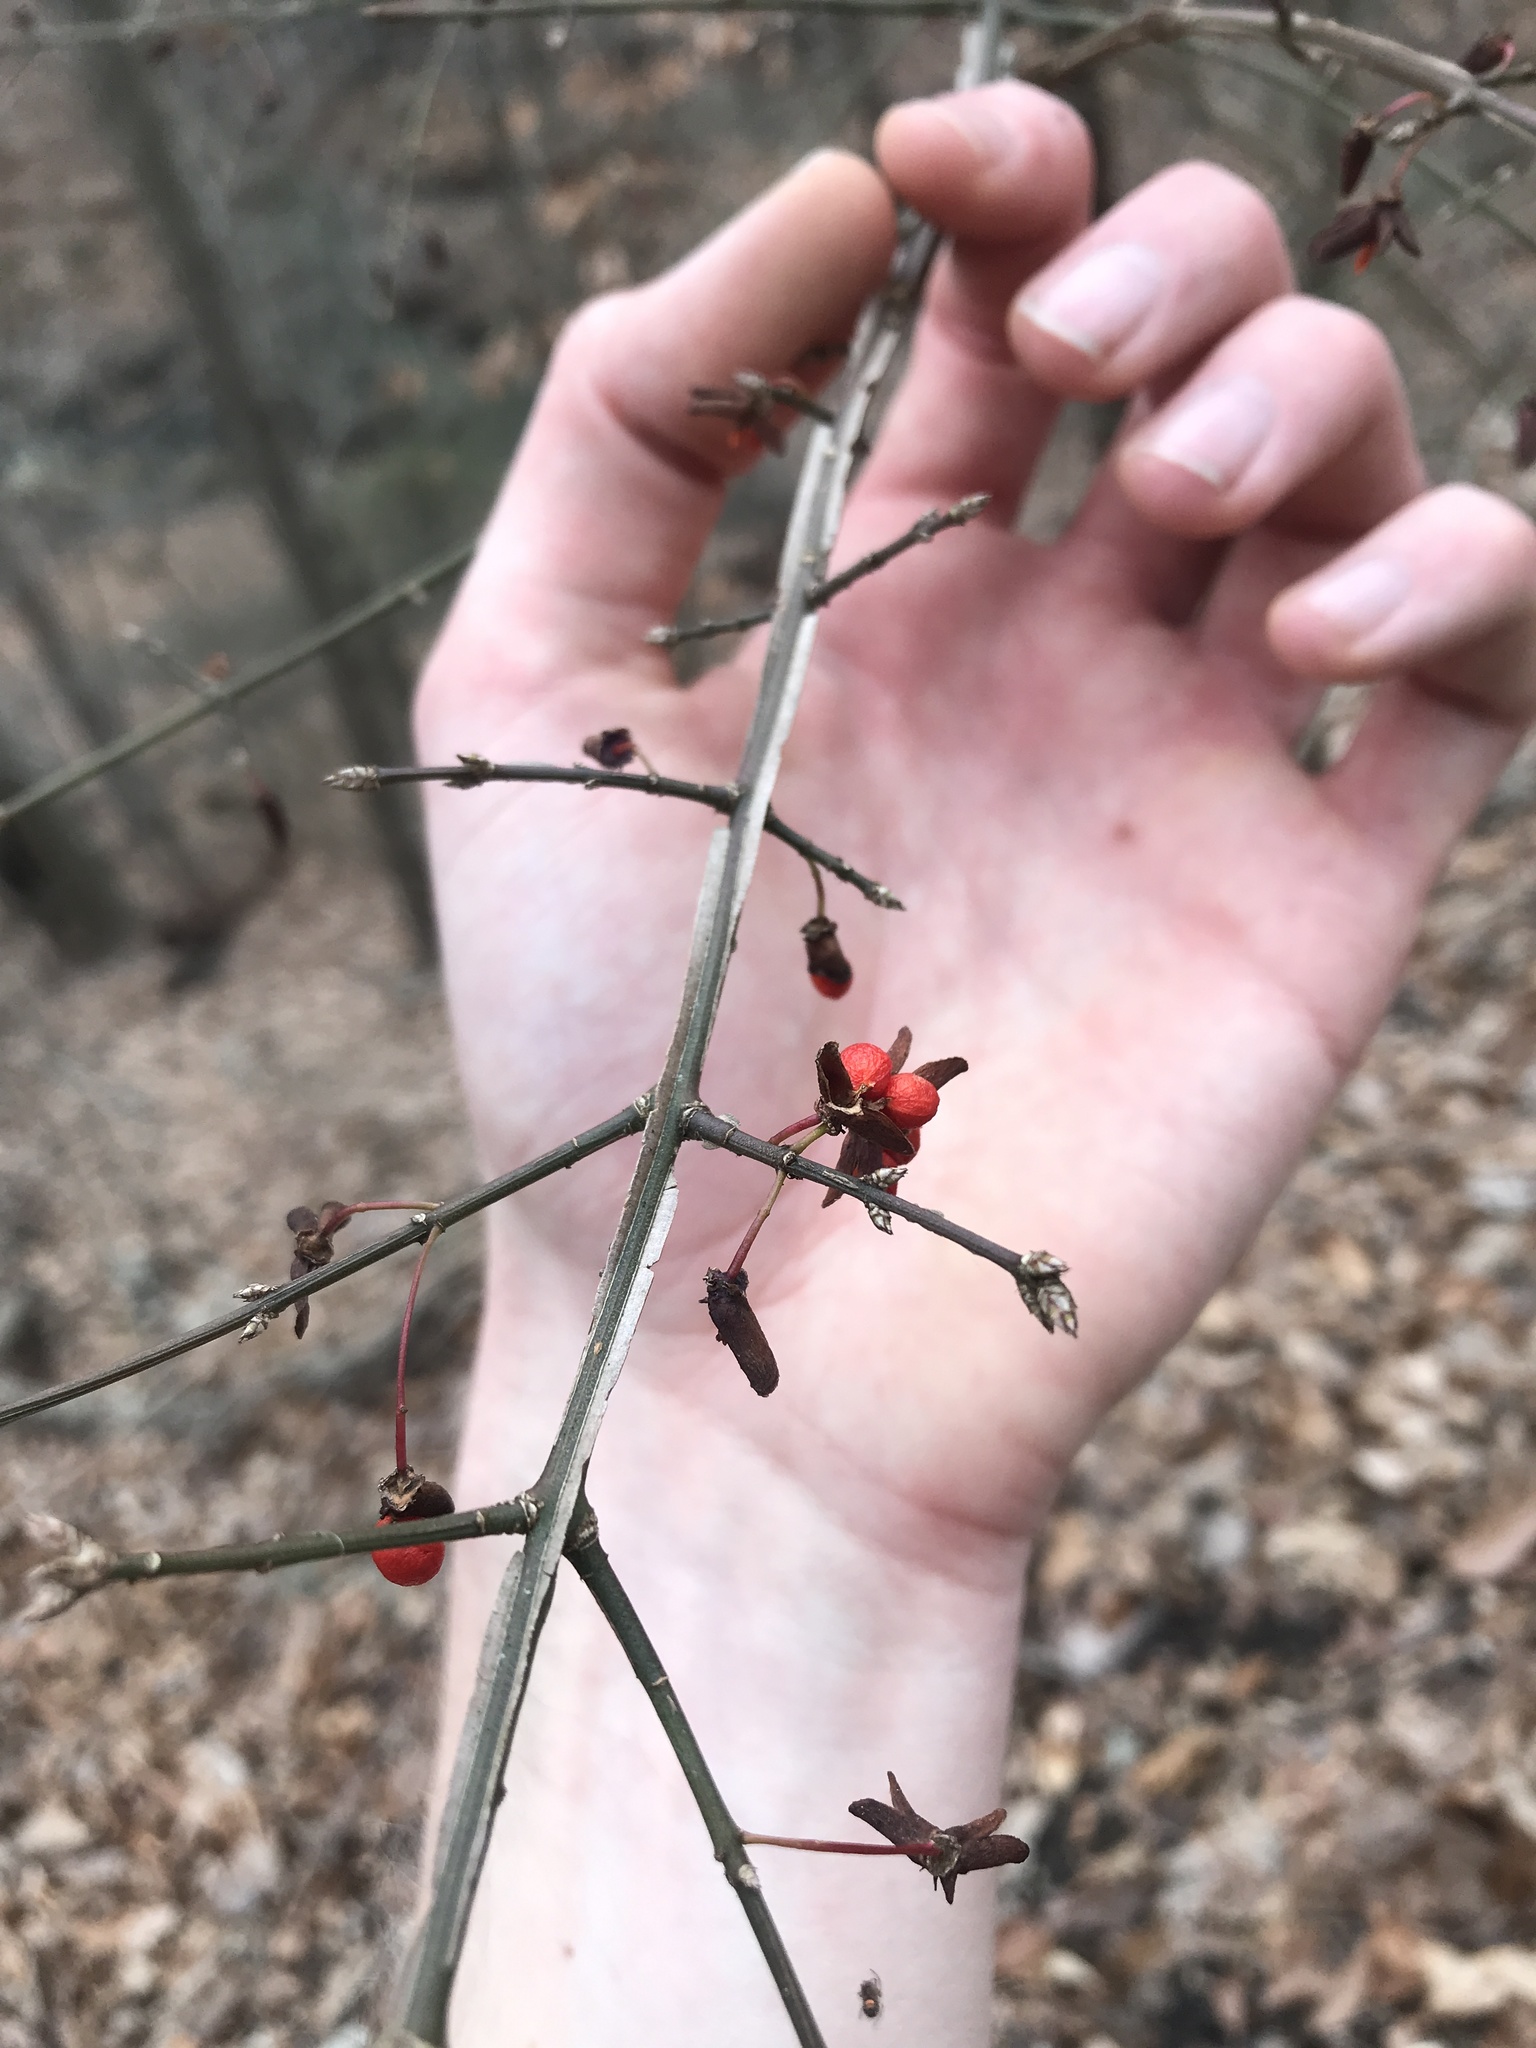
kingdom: Plantae
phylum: Tracheophyta
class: Magnoliopsida
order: Celastrales
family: Celastraceae
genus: Euonymus
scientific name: Euonymus alatus
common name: Winged euonymus
